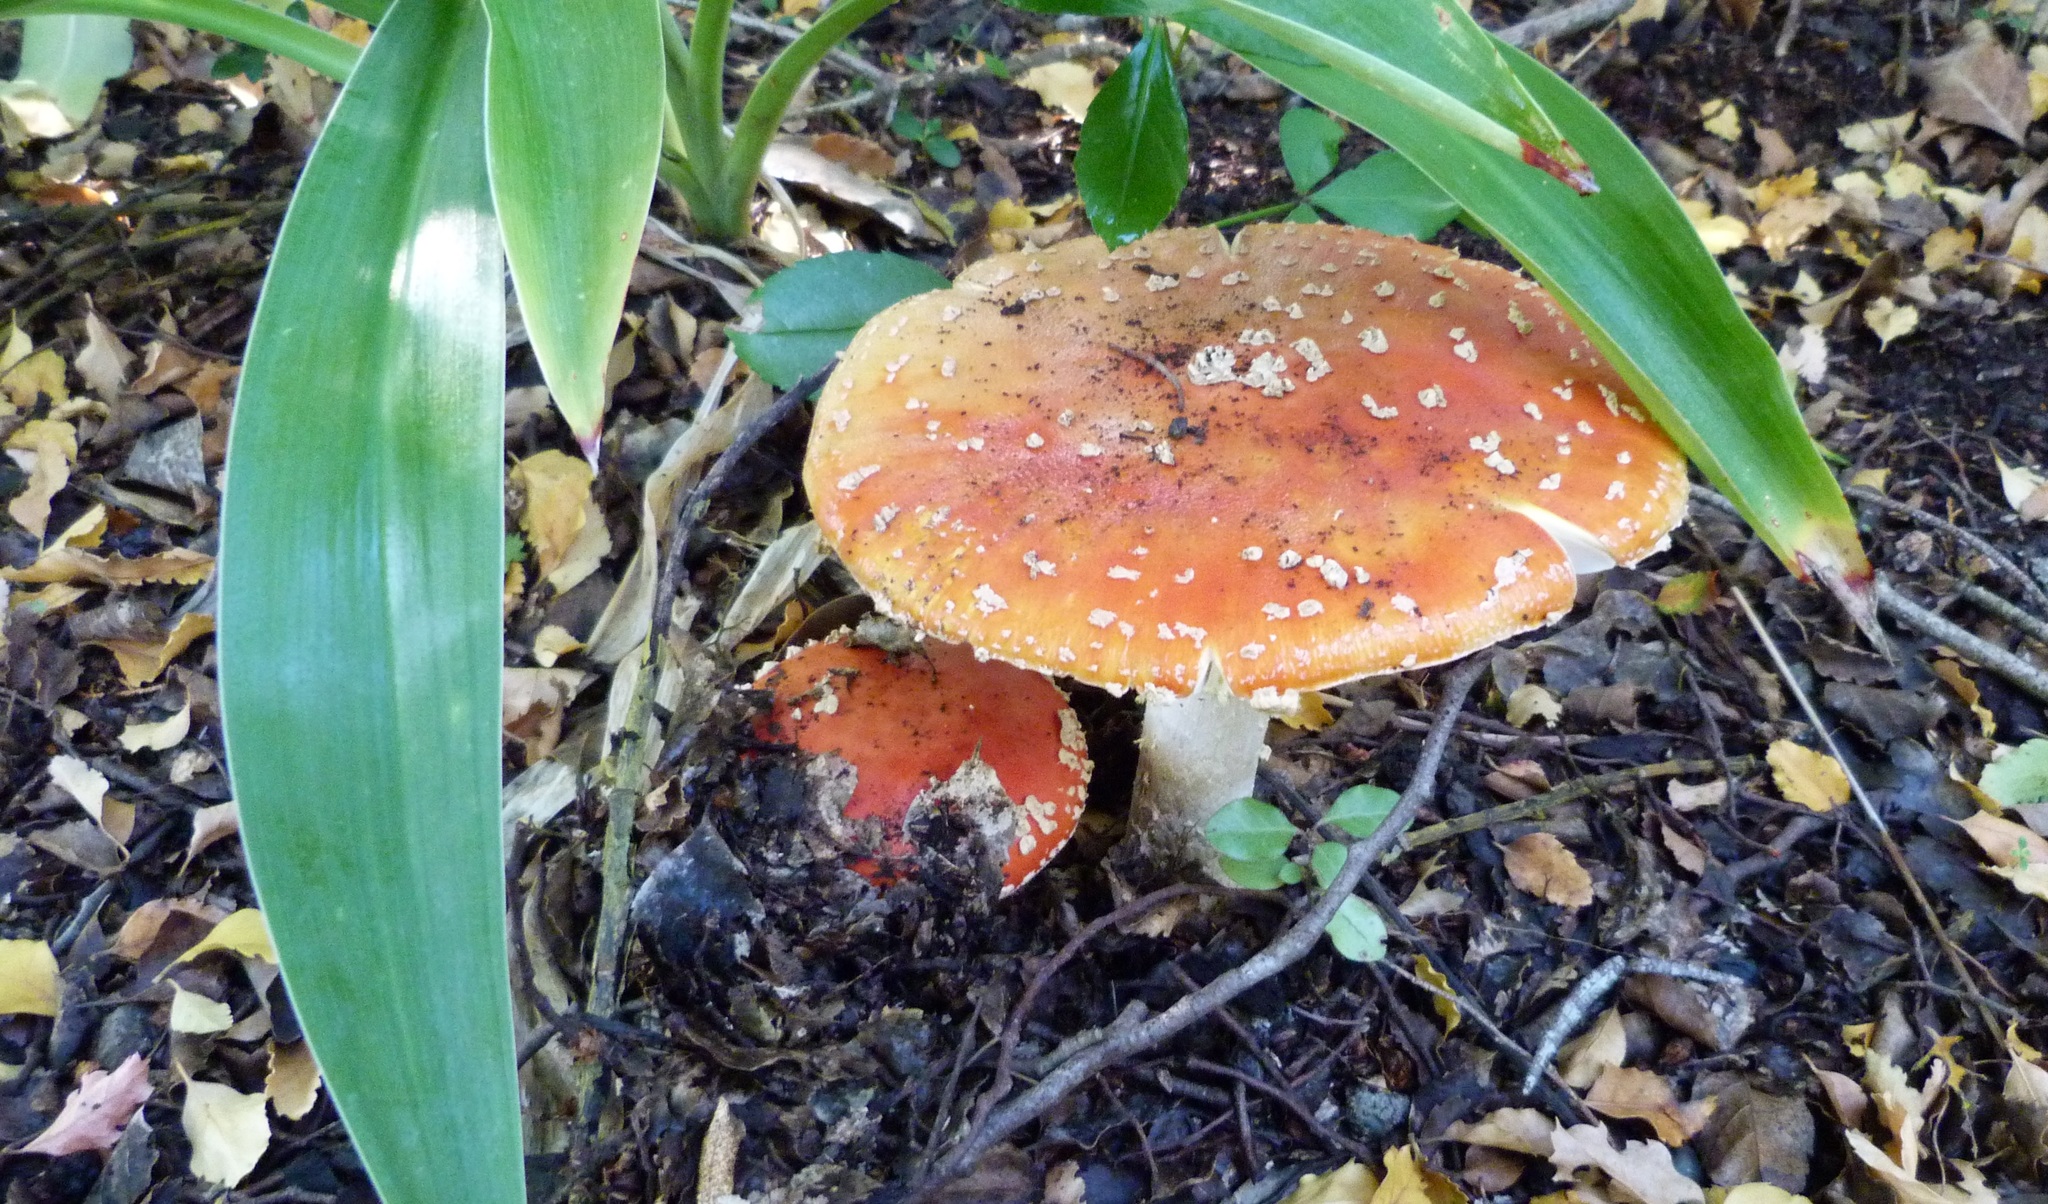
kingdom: Fungi
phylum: Basidiomycota
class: Agaricomycetes
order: Agaricales
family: Amanitaceae
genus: Amanita
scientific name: Amanita muscaria
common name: Fly agaric
